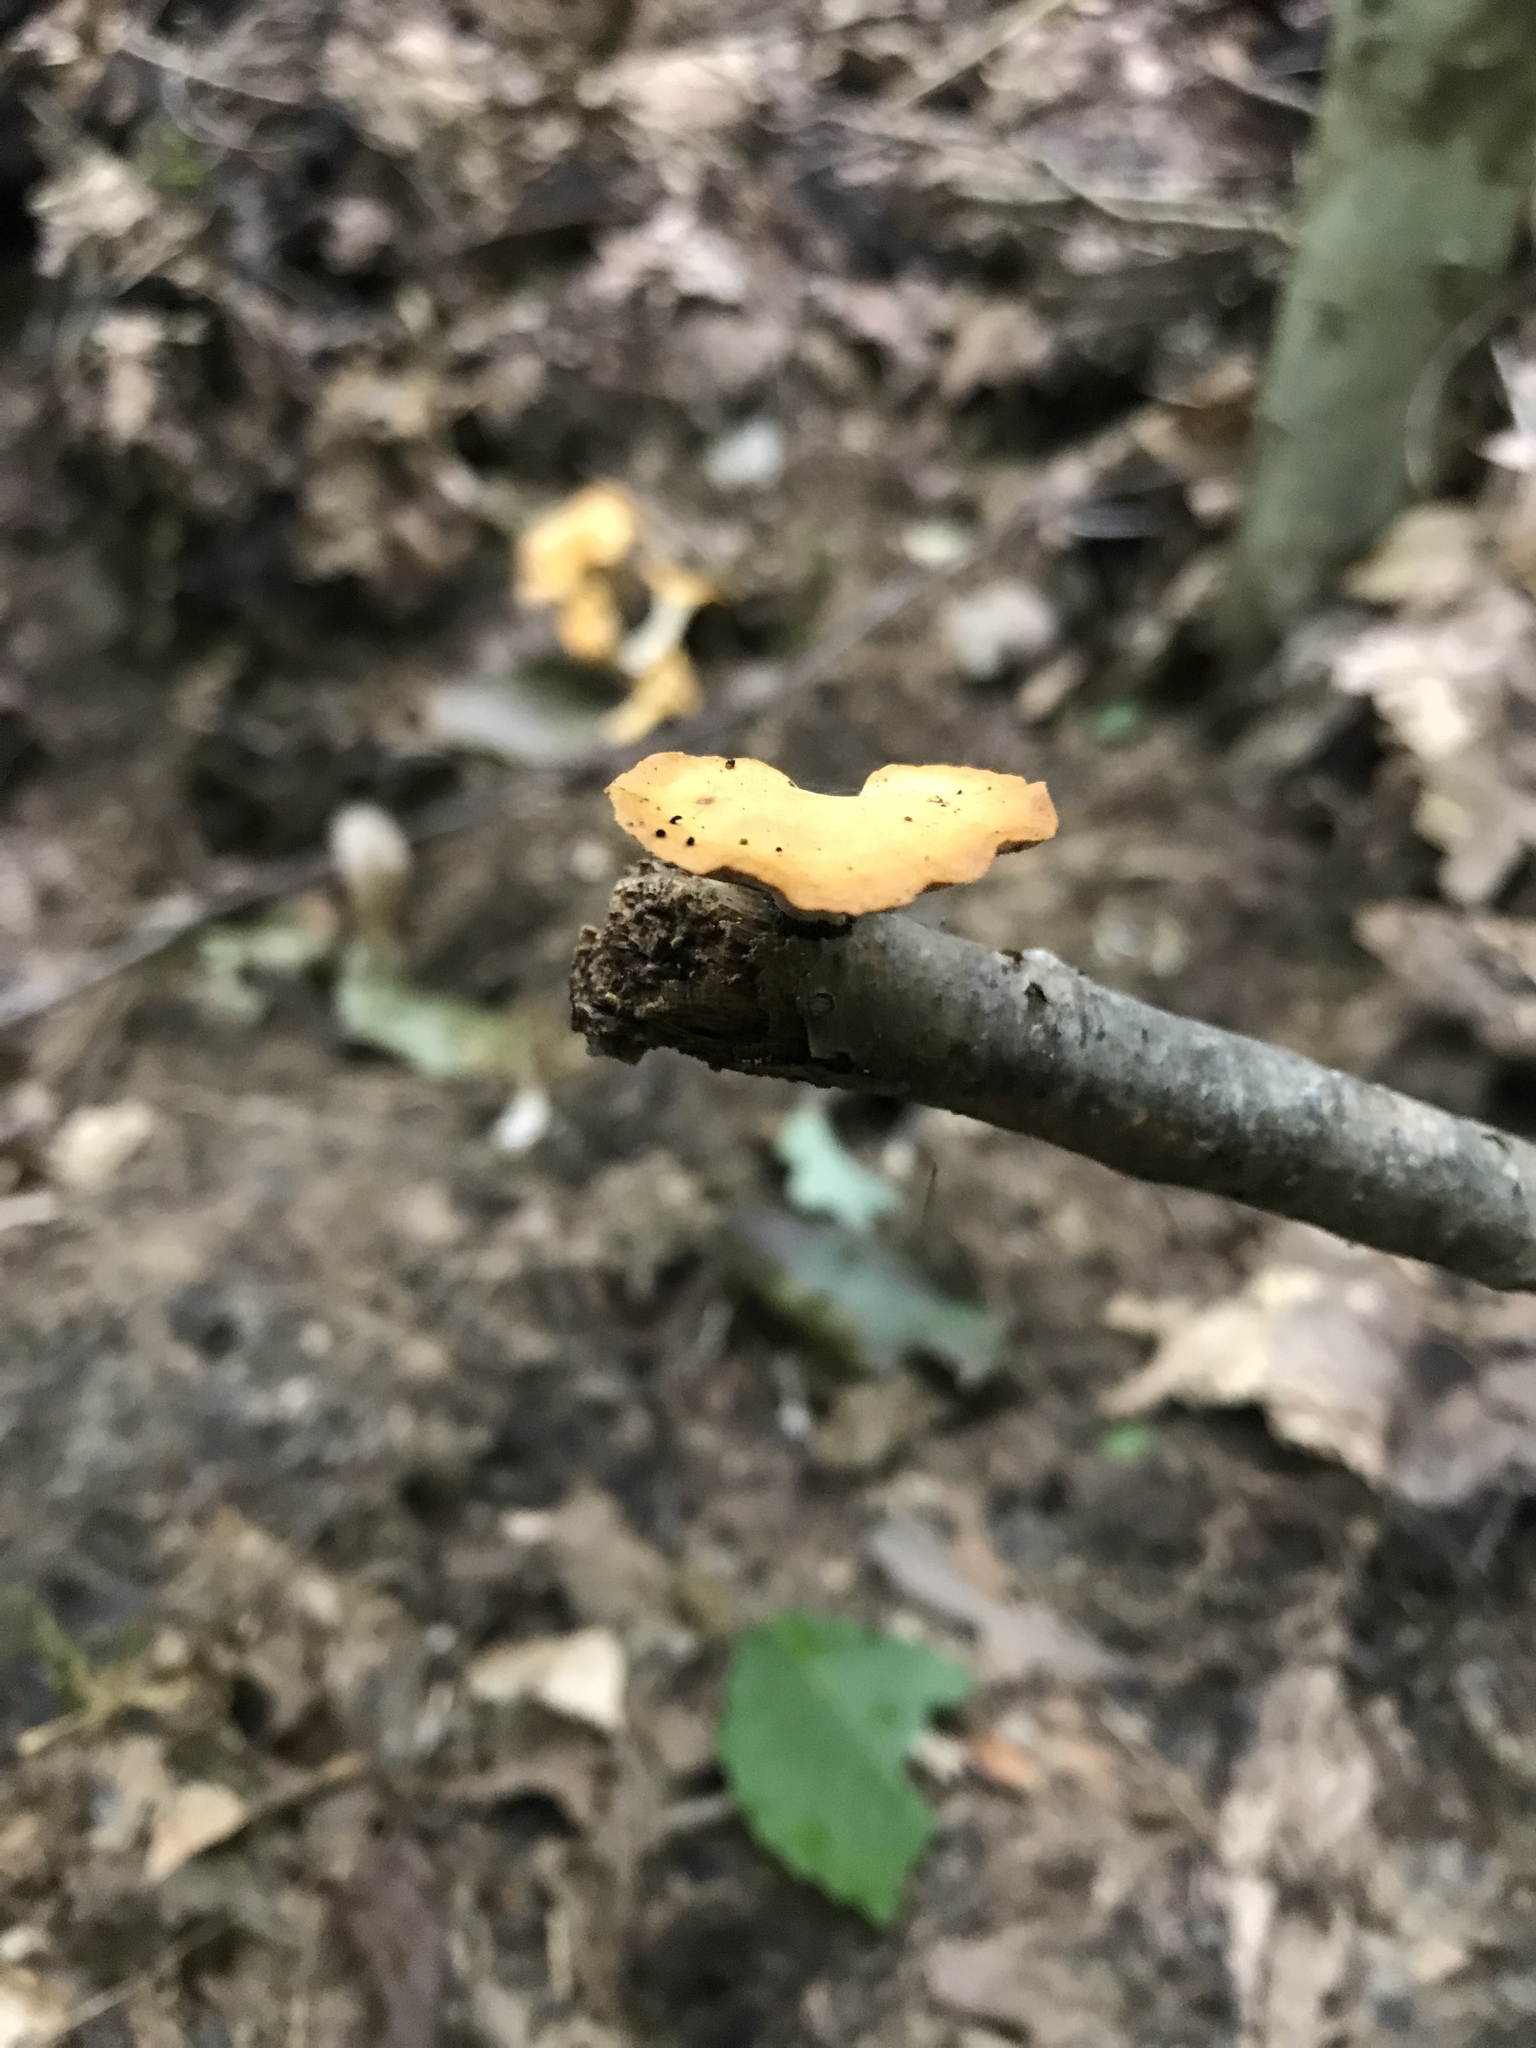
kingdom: Fungi
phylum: Basidiomycota
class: Agaricomycetes
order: Polyporales
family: Polyporaceae
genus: Cerioporus
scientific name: Cerioporus varius
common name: Elegant polypore
